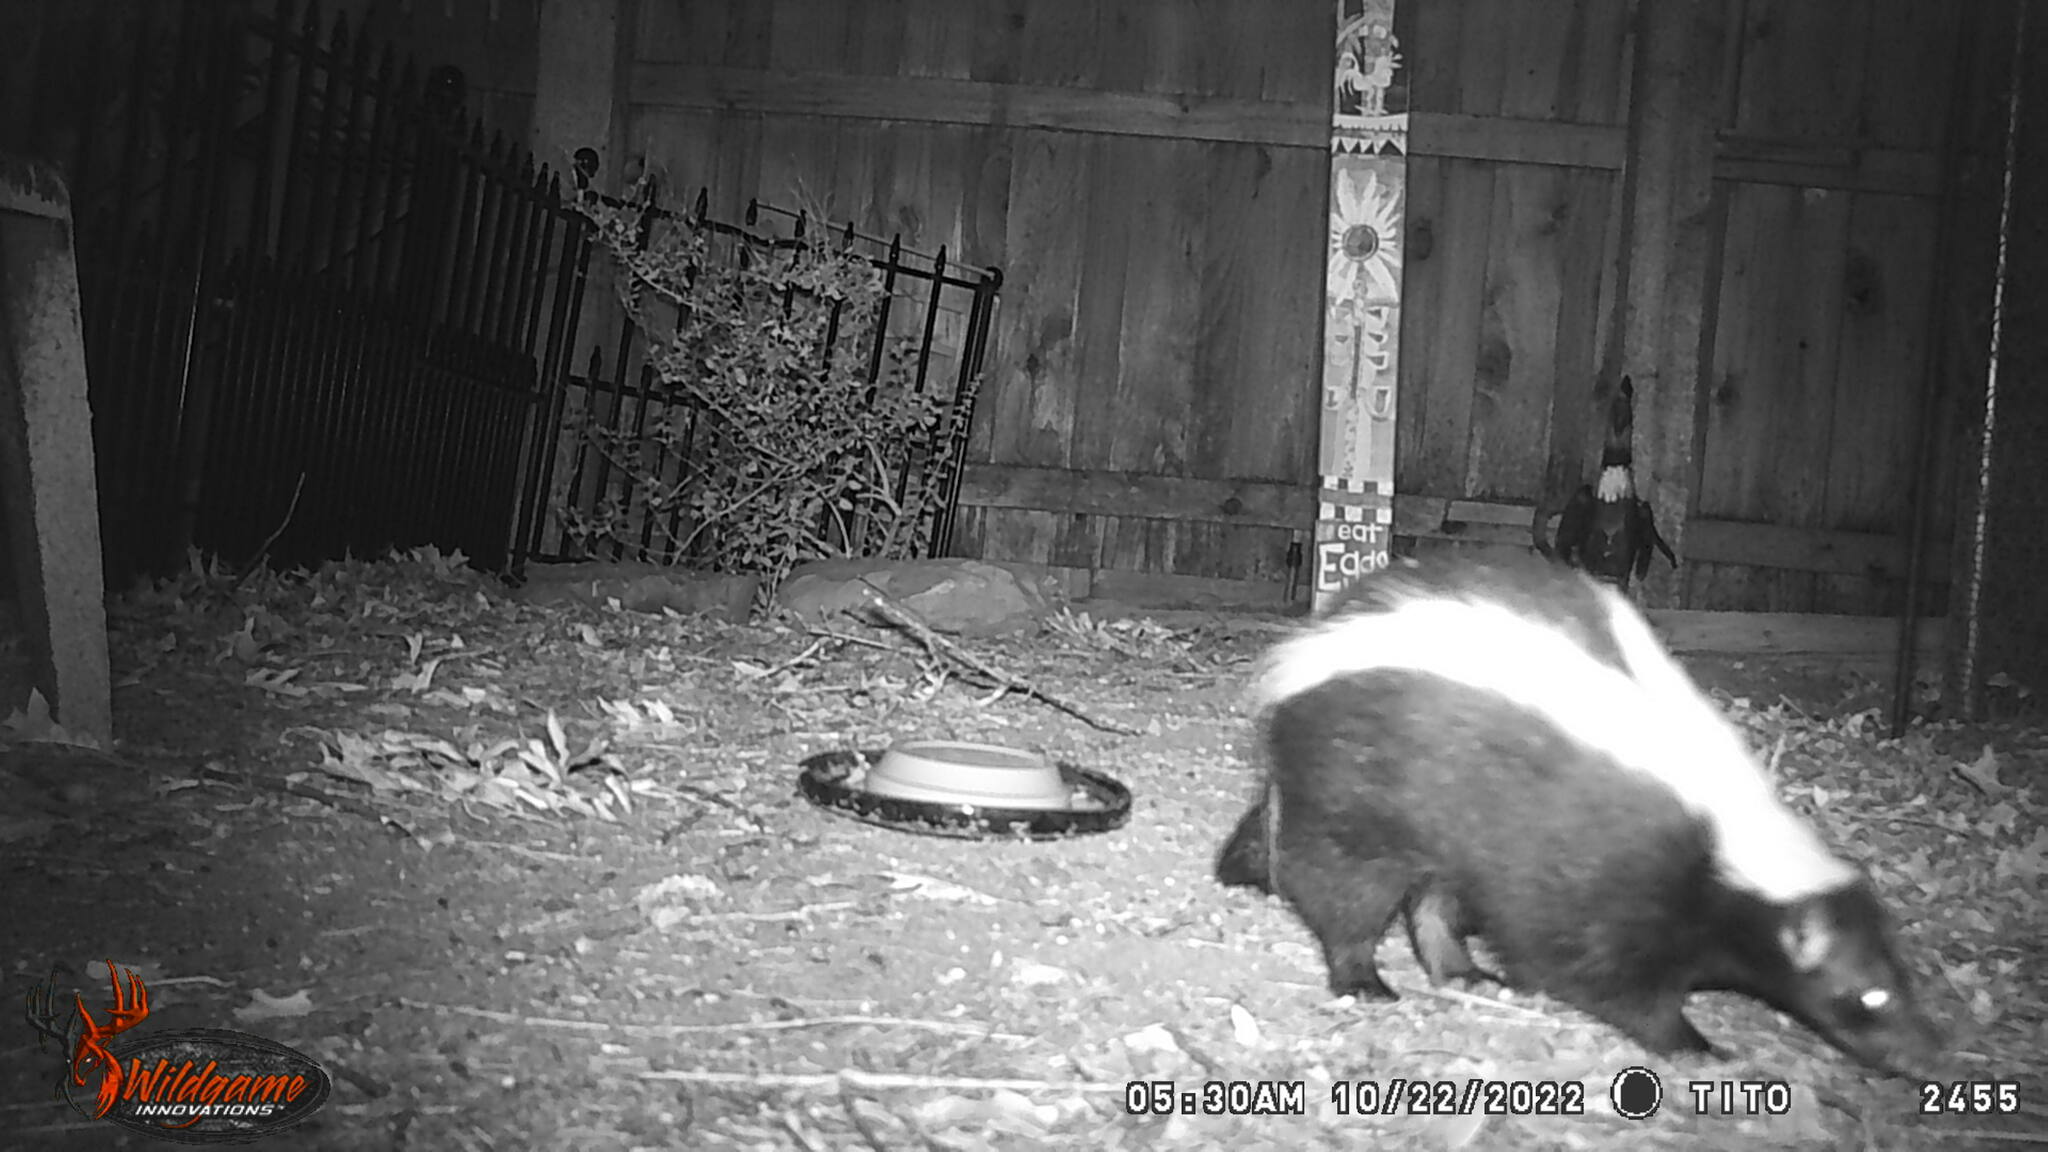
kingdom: Animalia
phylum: Chordata
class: Mammalia
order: Carnivora
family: Mephitidae
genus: Mephitis
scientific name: Mephitis mephitis
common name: Striped skunk
